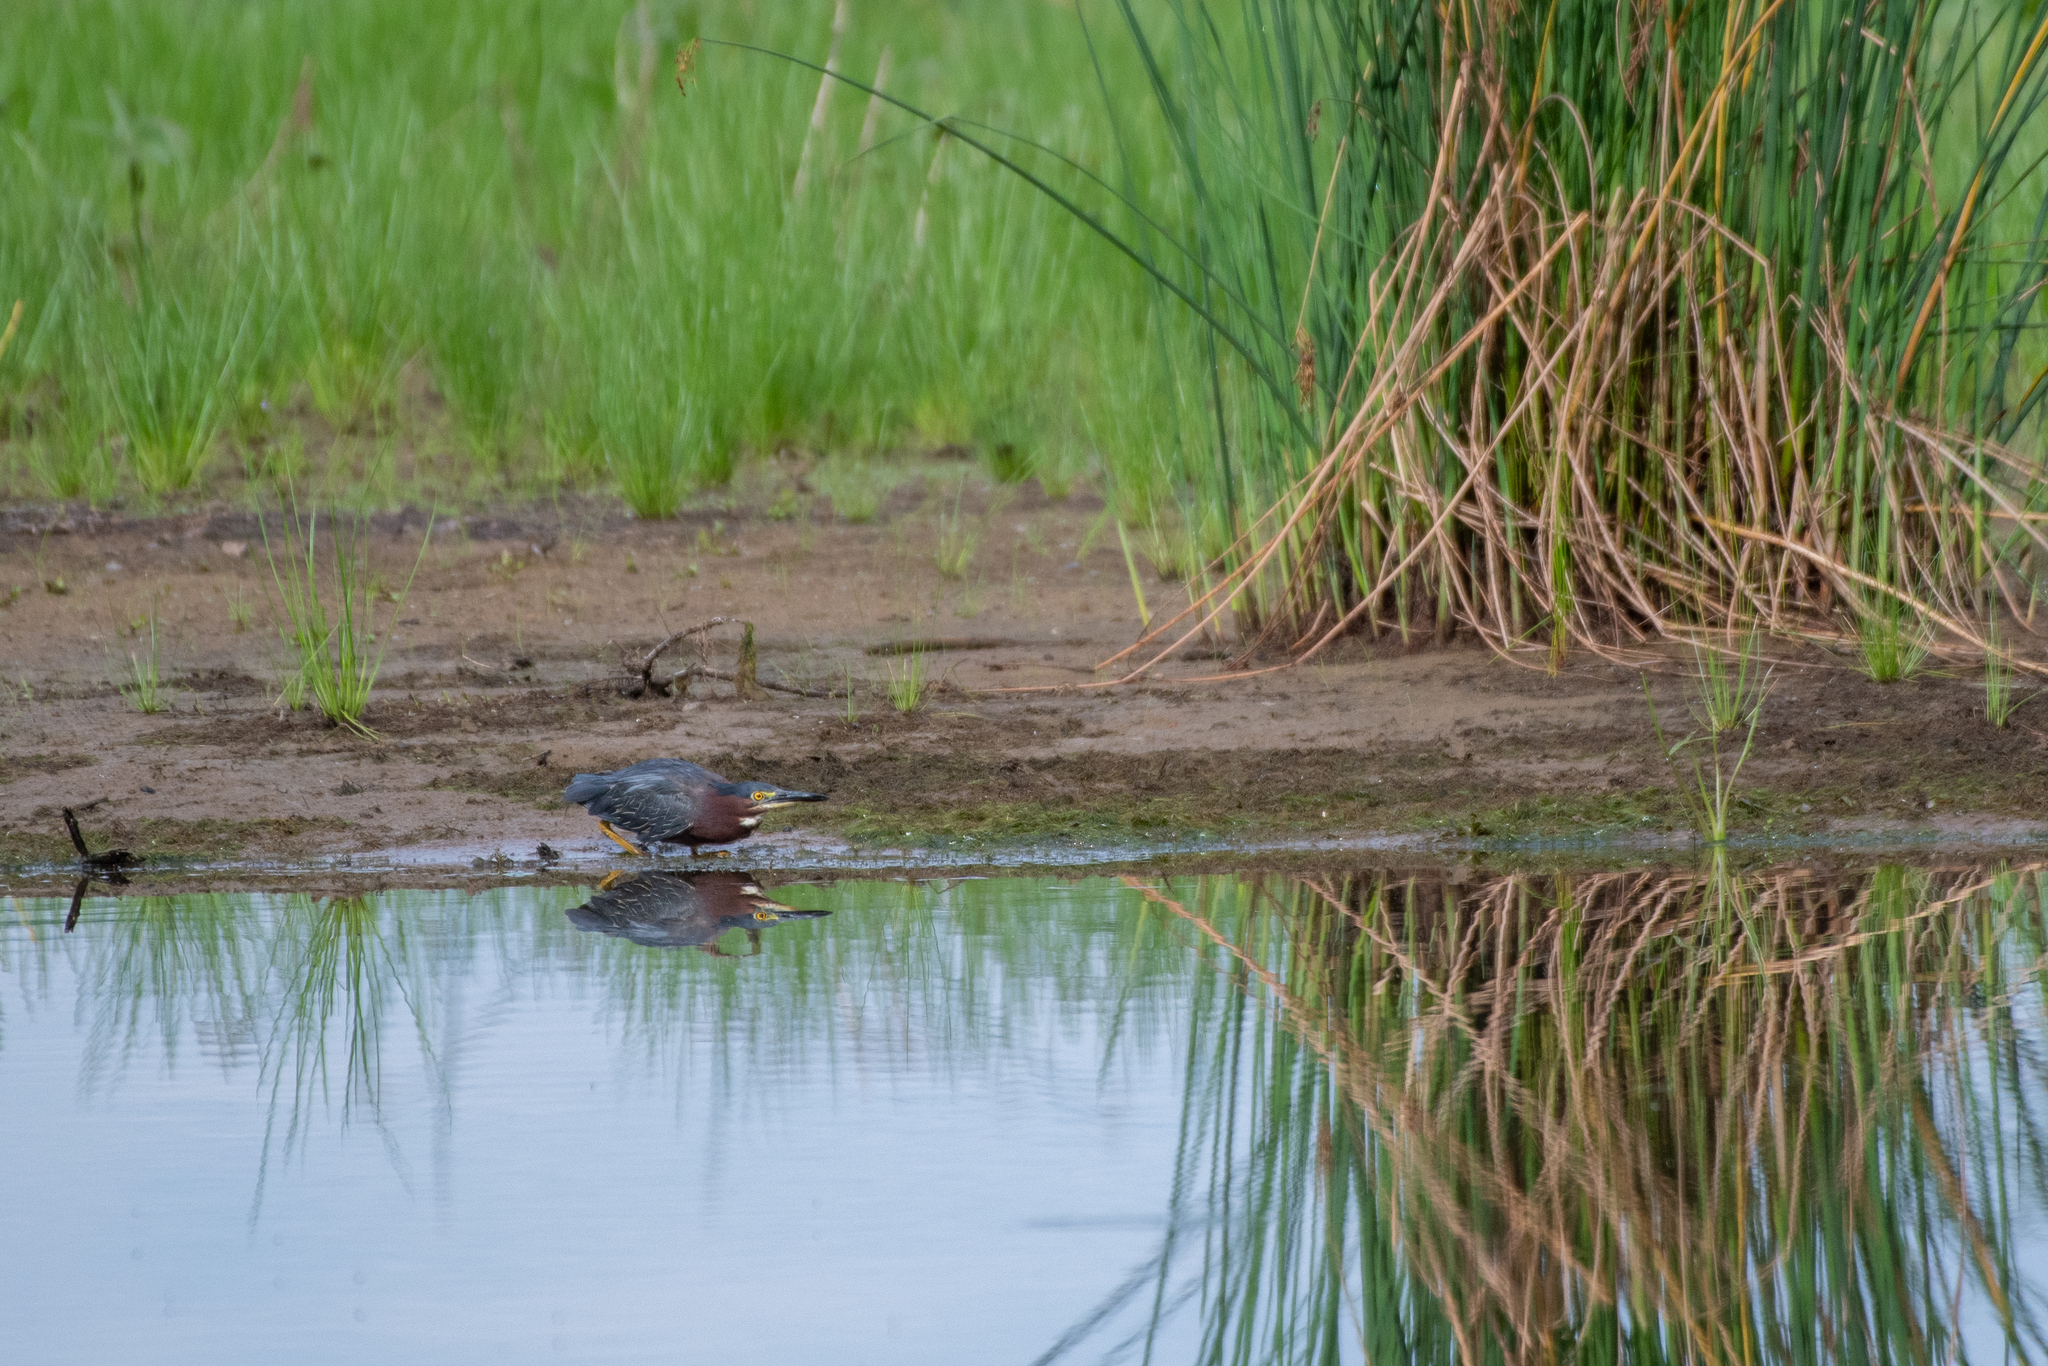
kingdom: Animalia
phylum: Chordata
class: Aves
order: Pelecaniformes
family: Ardeidae
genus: Butorides
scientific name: Butorides virescens
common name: Green heron
